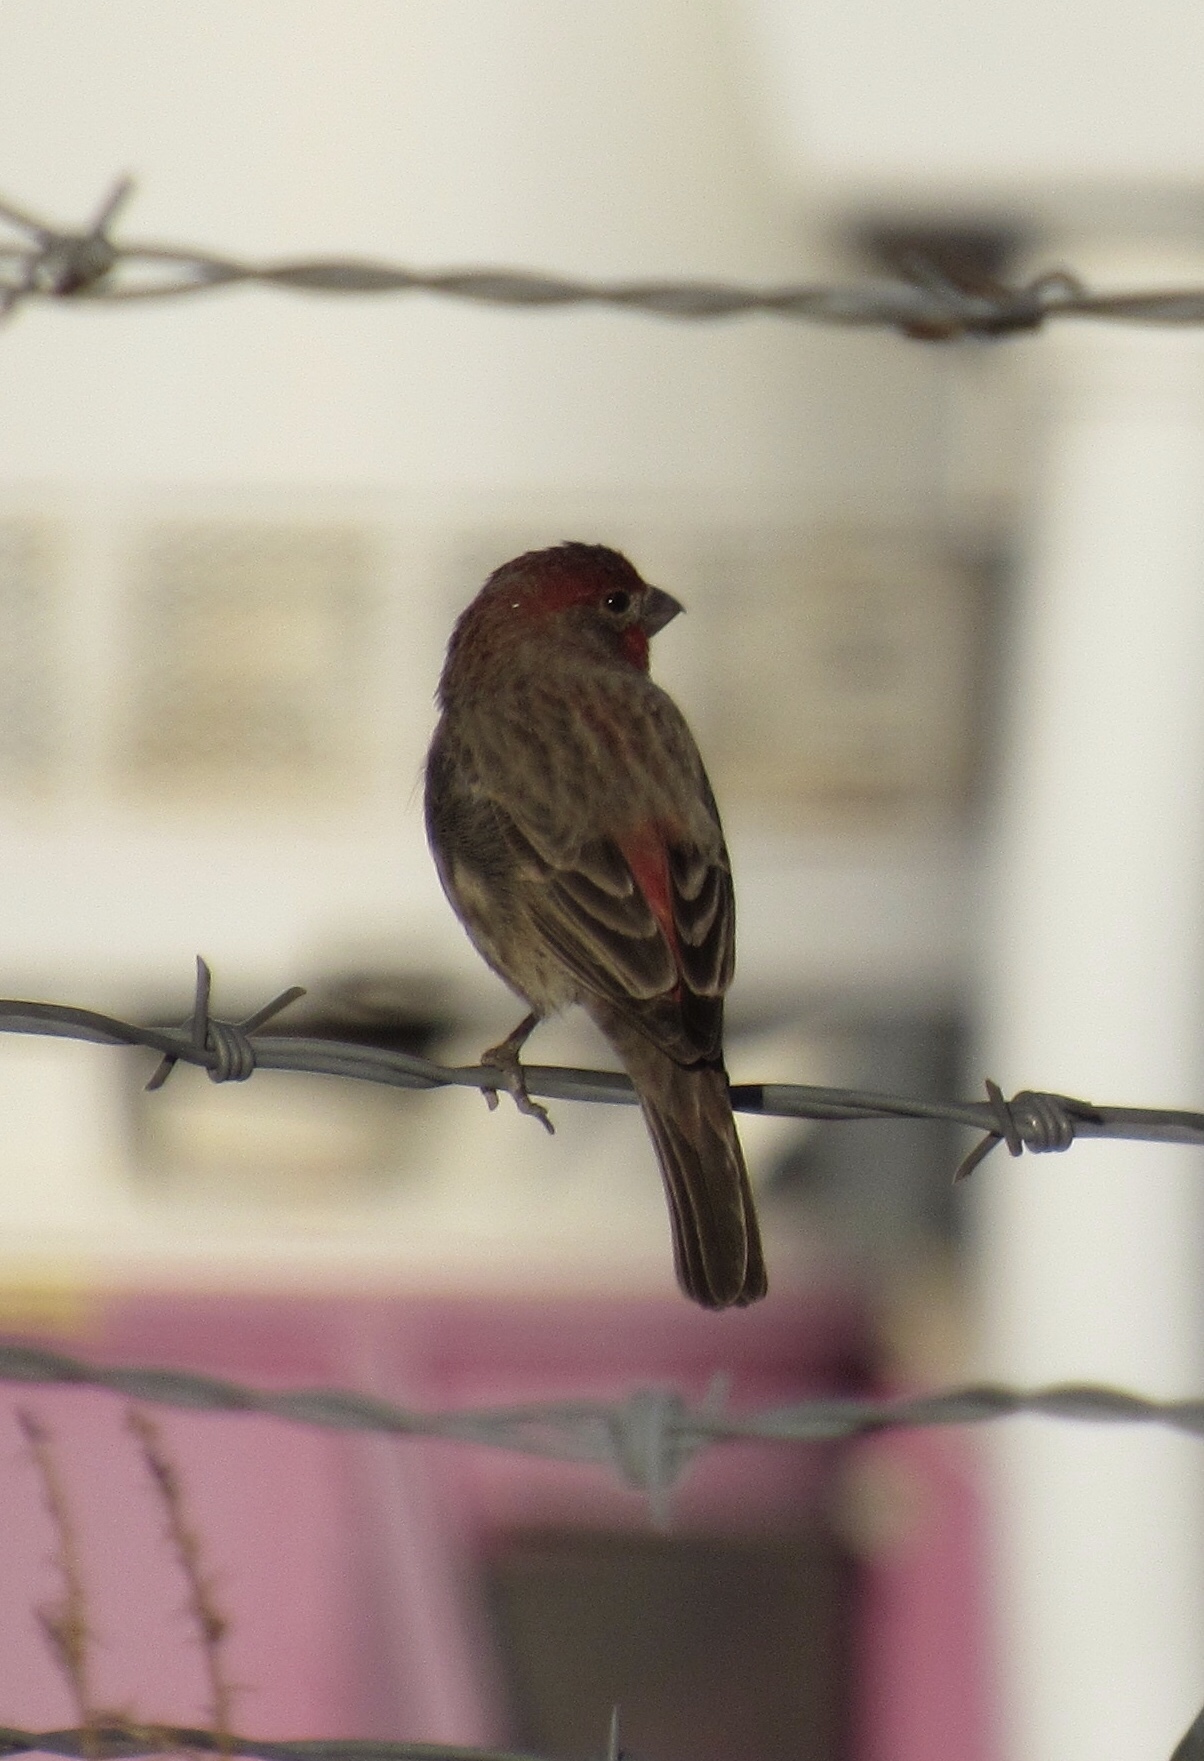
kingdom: Animalia
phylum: Chordata
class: Aves
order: Passeriformes
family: Fringillidae
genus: Haemorhous
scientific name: Haemorhous mexicanus
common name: House finch
